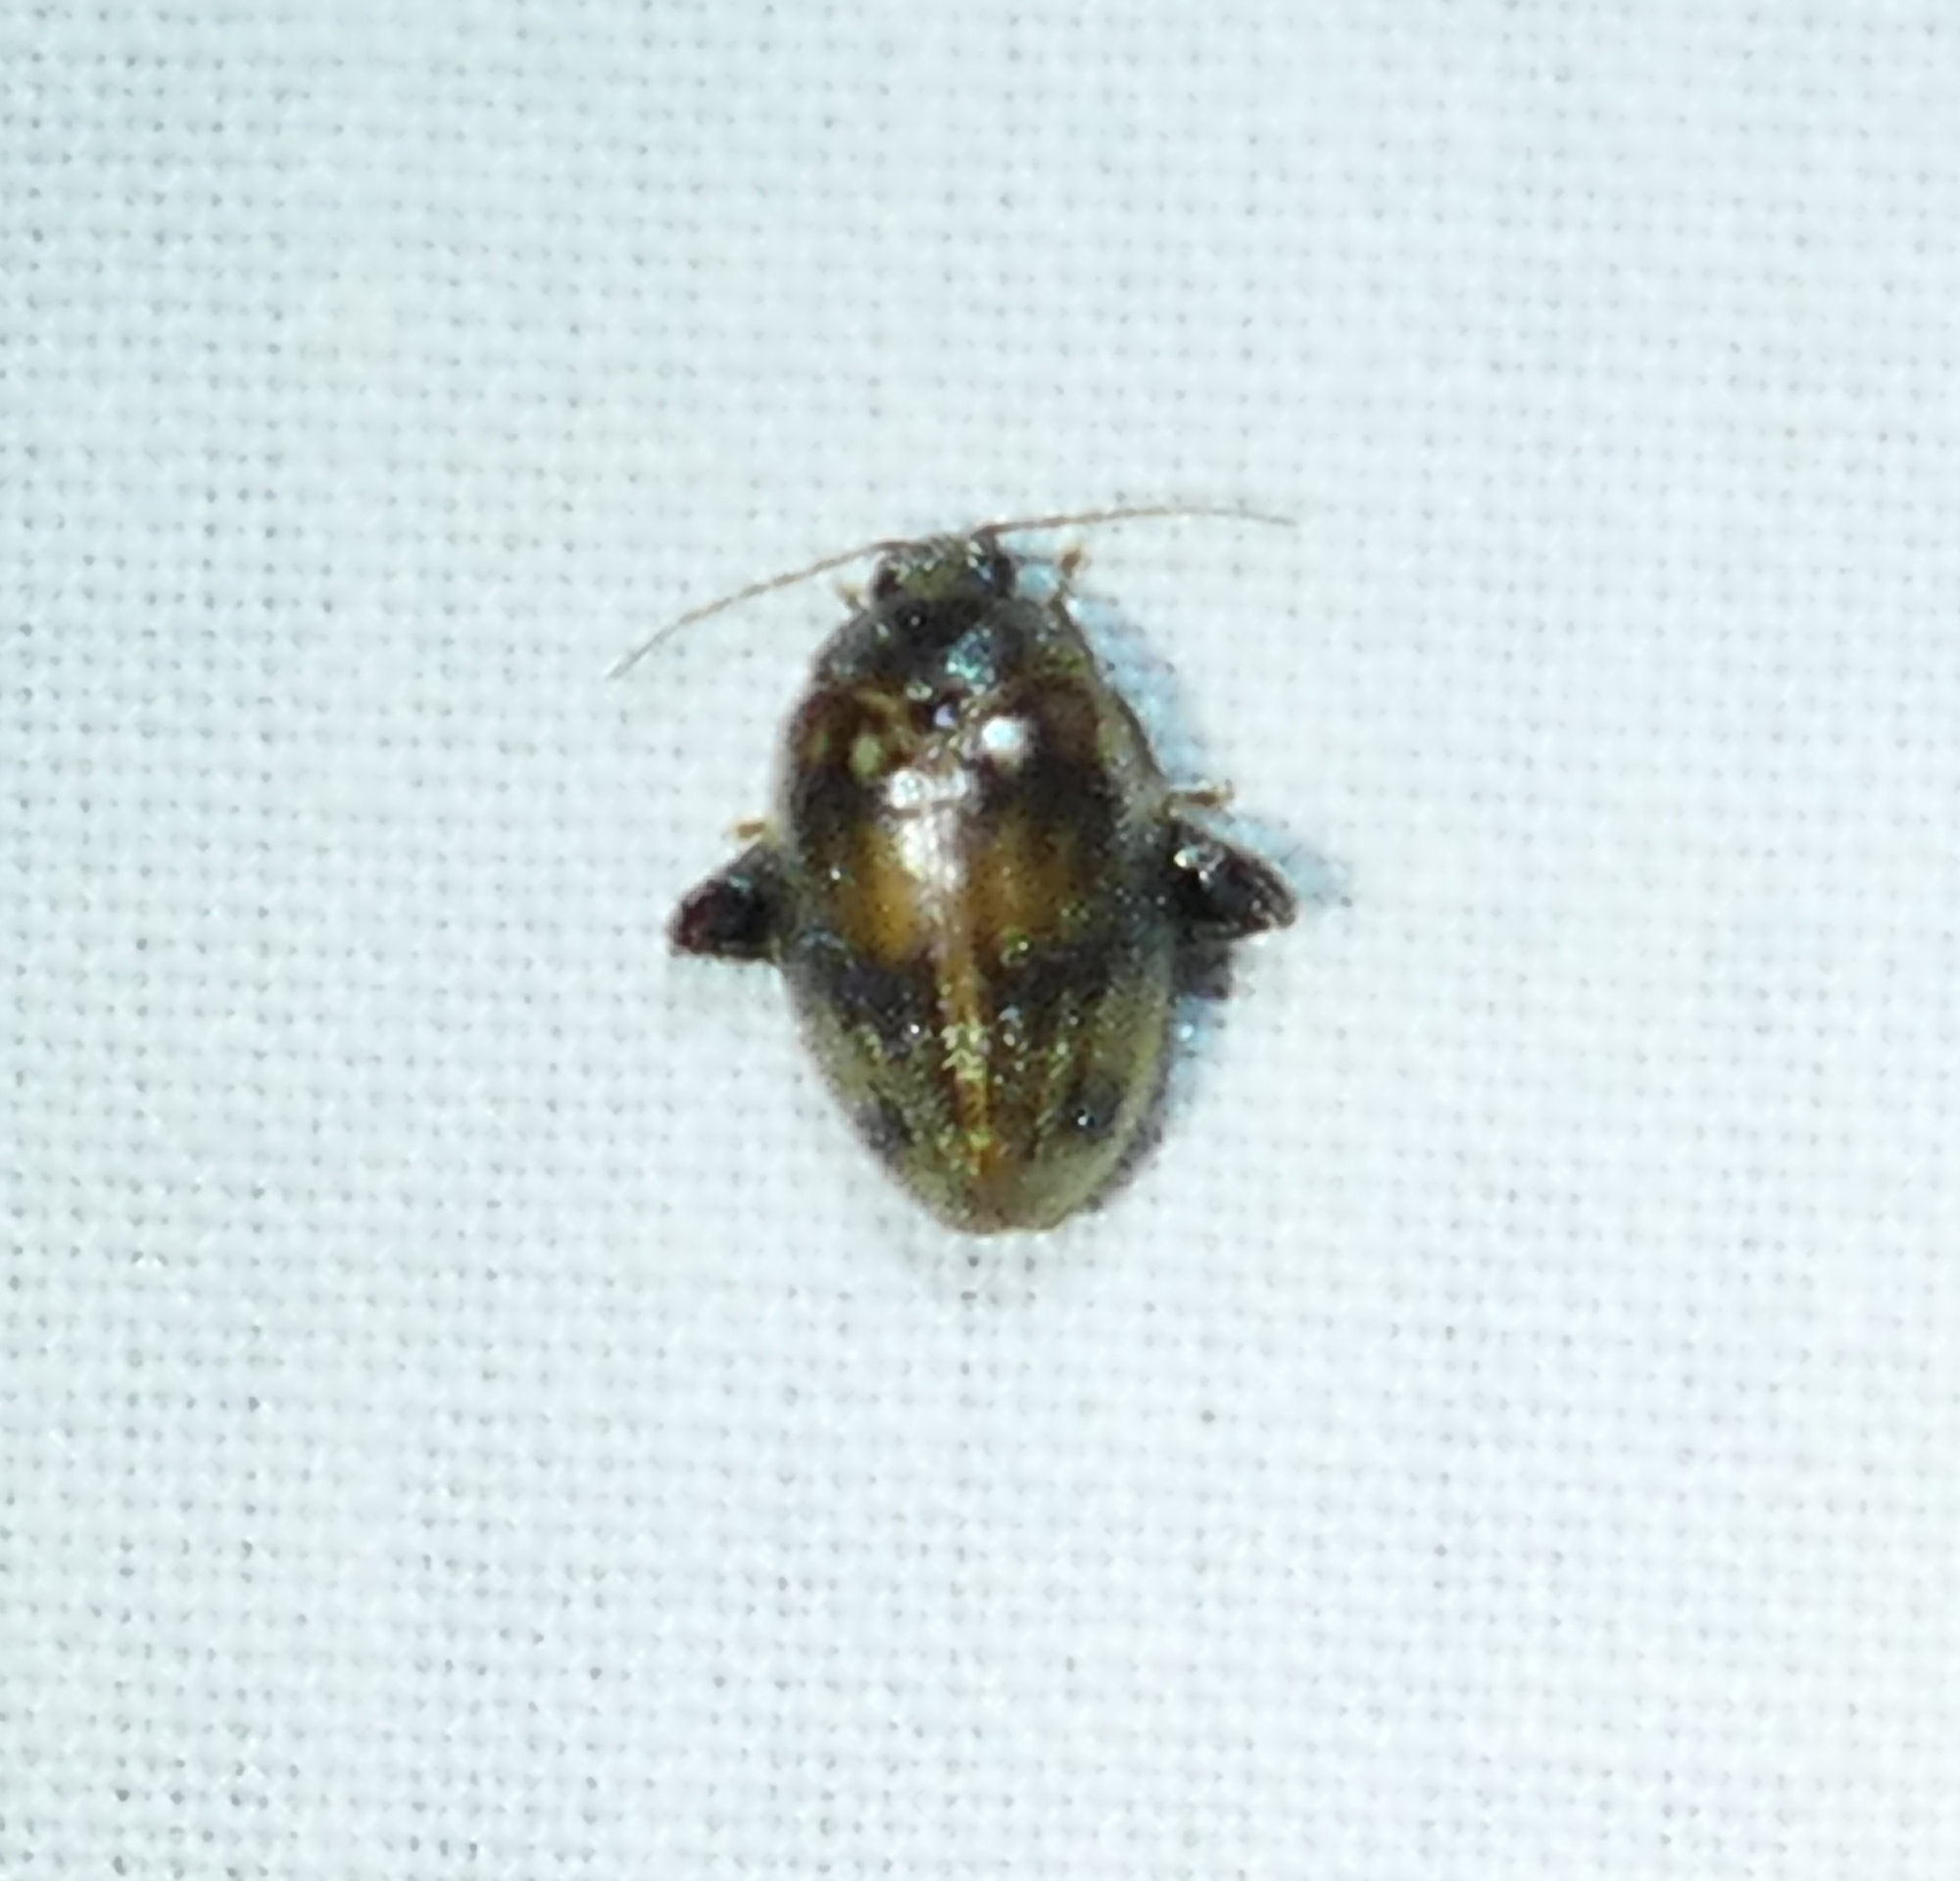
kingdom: Animalia
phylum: Arthropoda
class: Insecta
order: Coleoptera
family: Scirtidae
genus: Ora
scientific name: Ora texana
